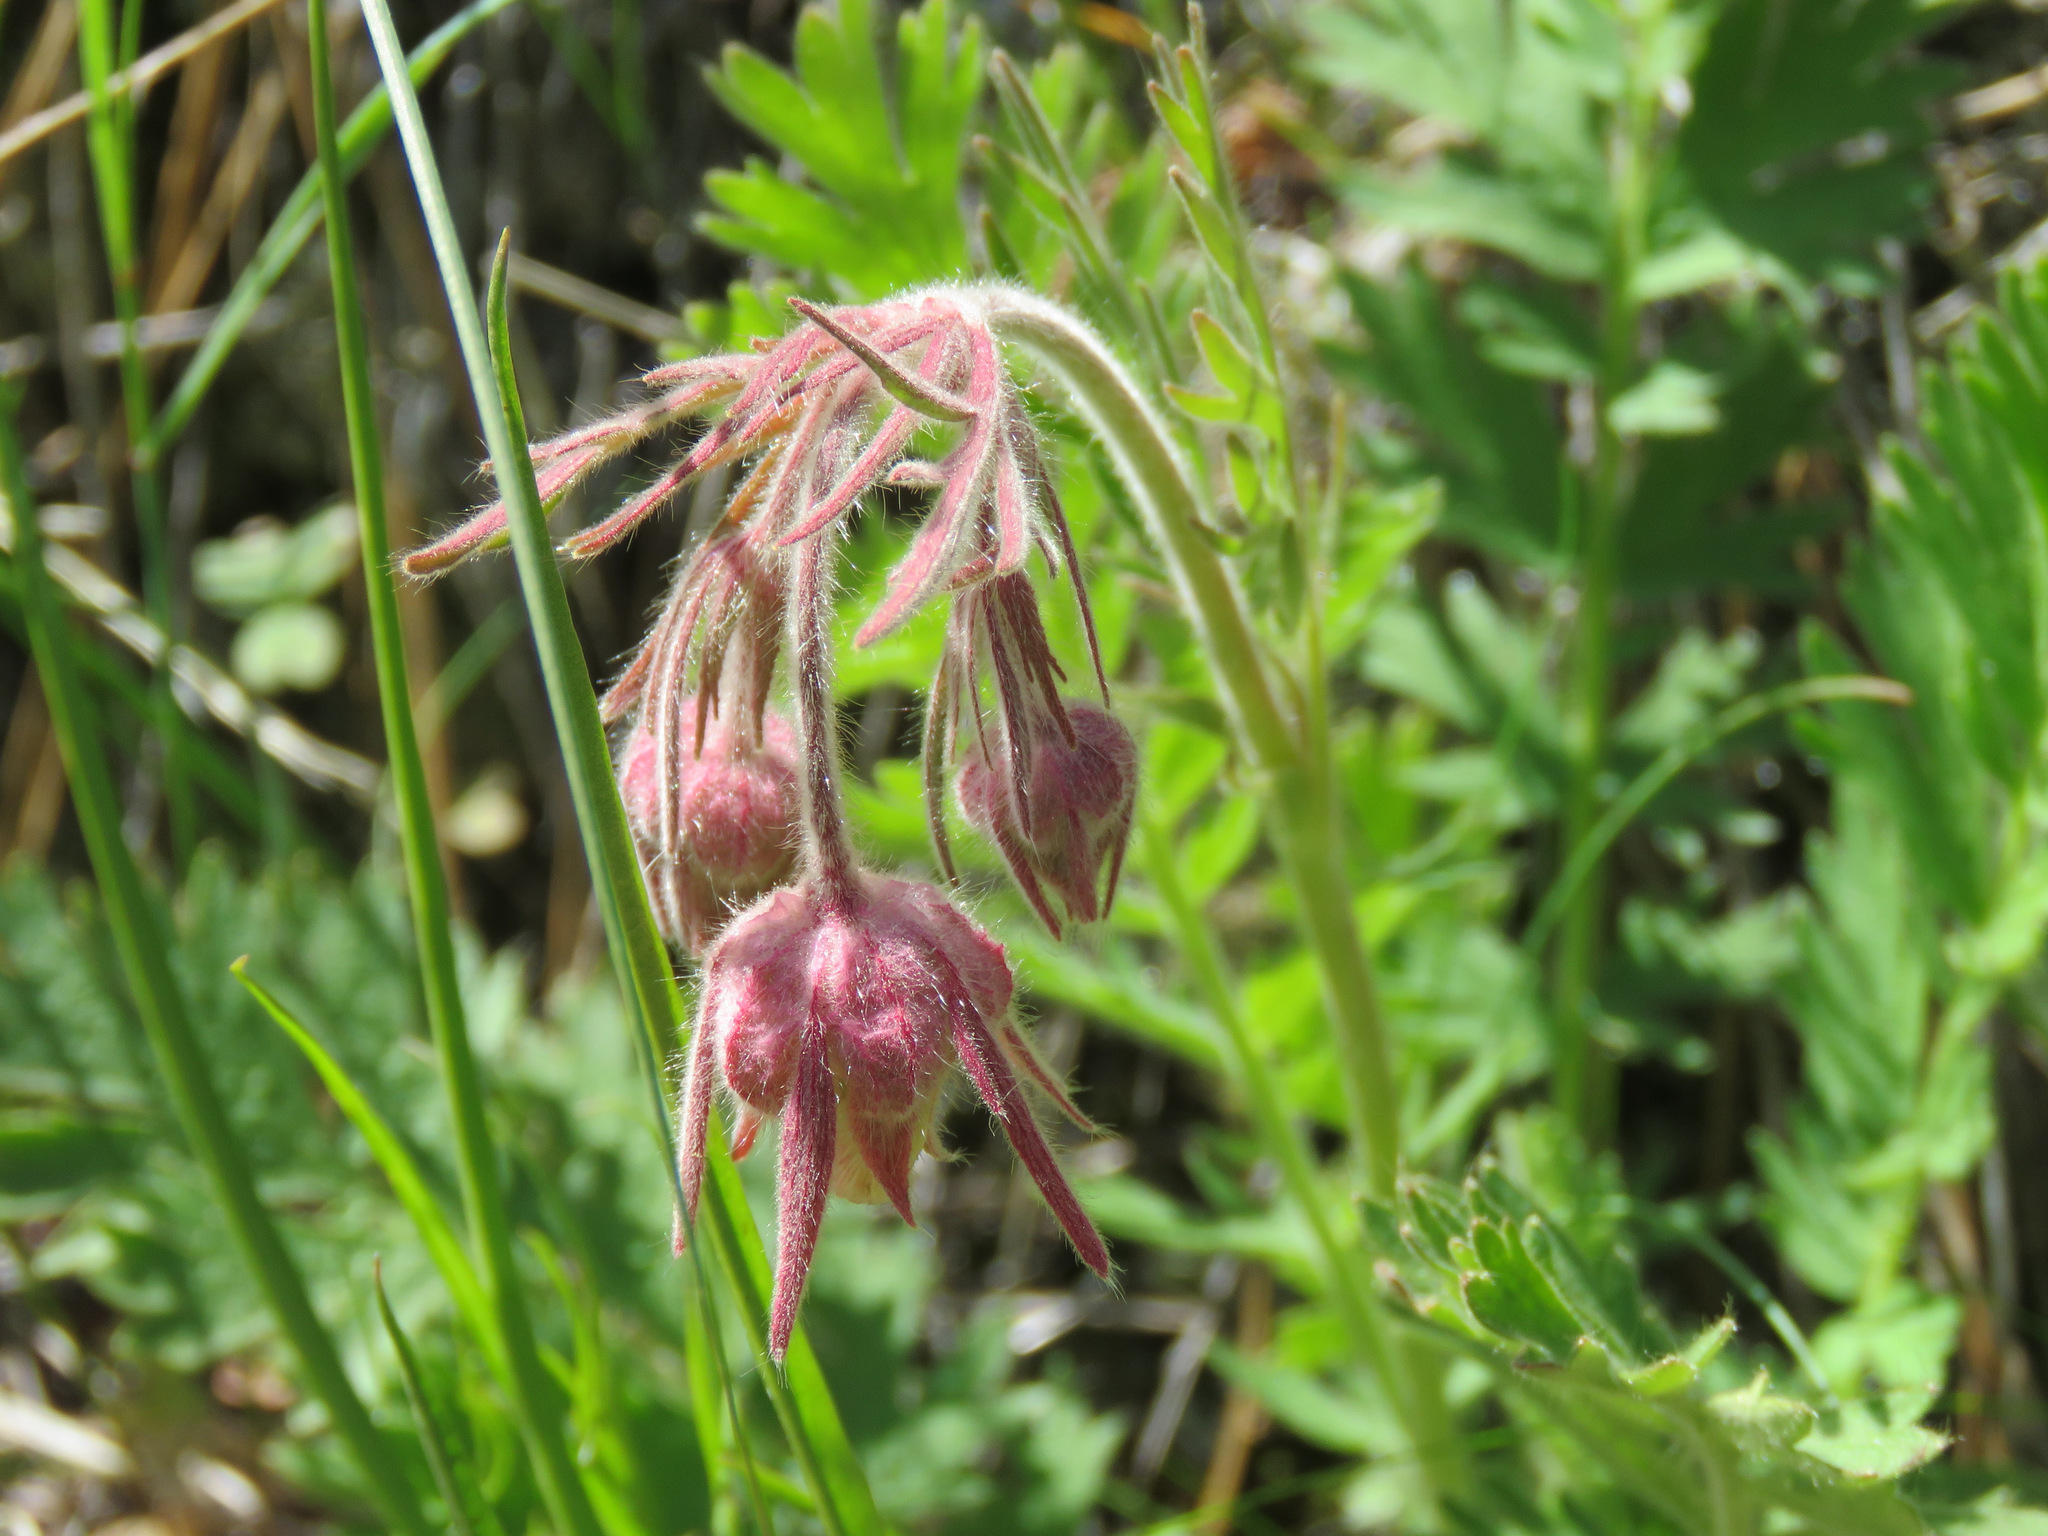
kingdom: Plantae
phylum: Tracheophyta
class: Magnoliopsida
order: Rosales
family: Rosaceae
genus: Geum
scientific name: Geum triflorum
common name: Old man's whiskers
